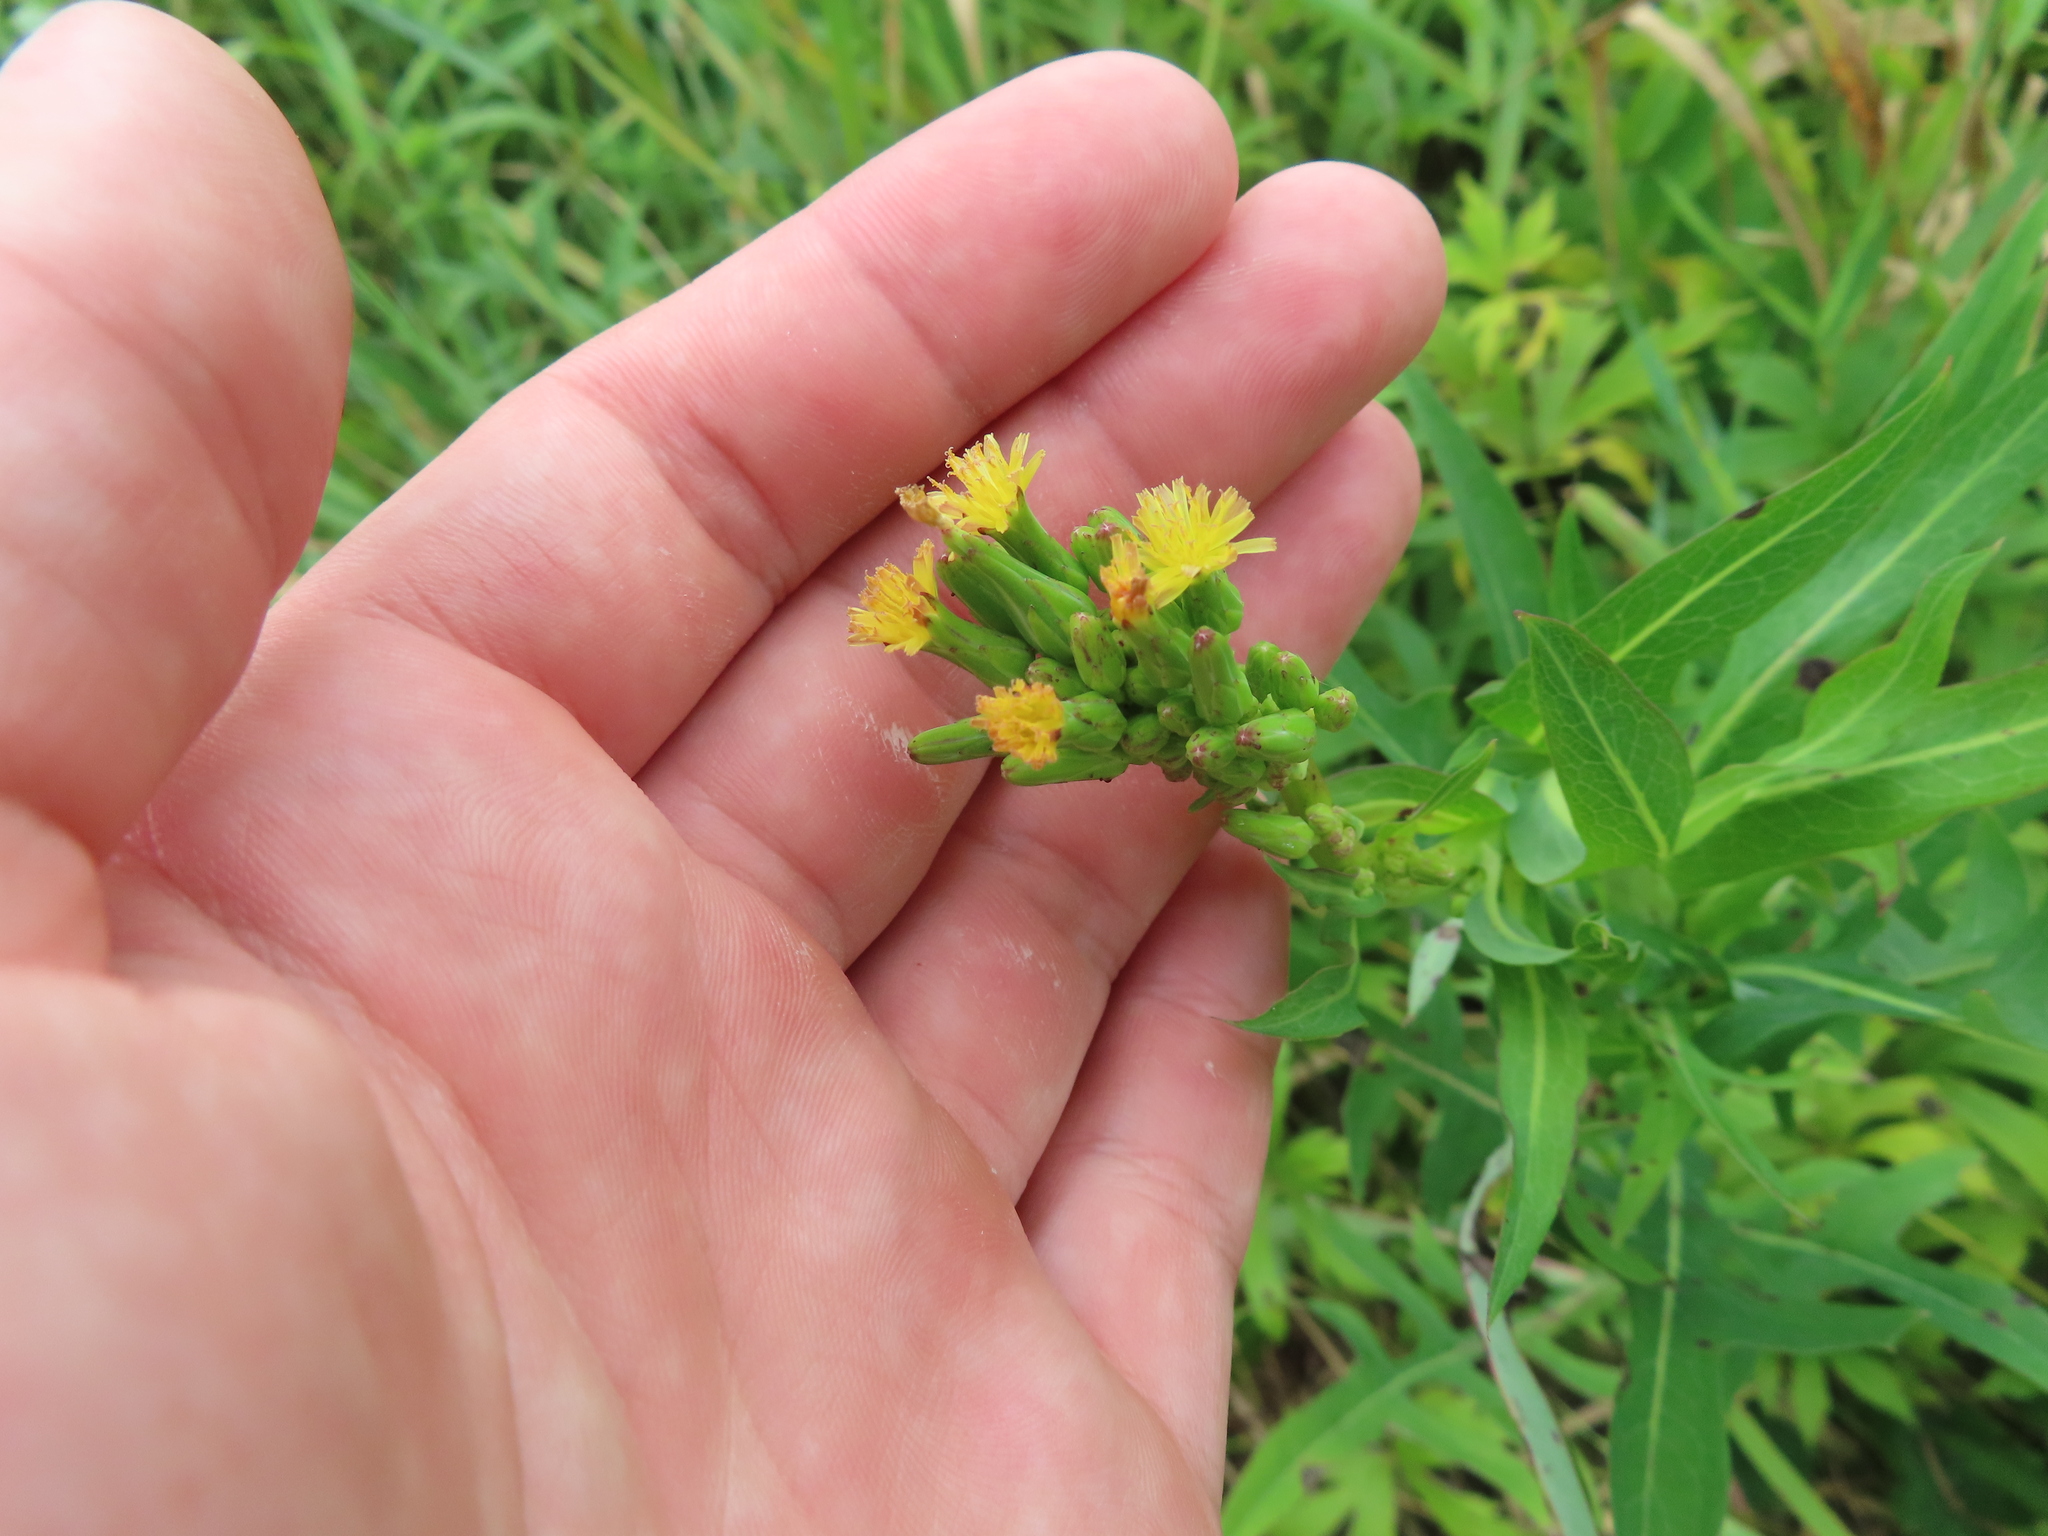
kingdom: Plantae
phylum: Tracheophyta
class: Magnoliopsida
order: Asterales
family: Asteraceae
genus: Lactuca
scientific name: Lactuca canadensis
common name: Canada lettuce
